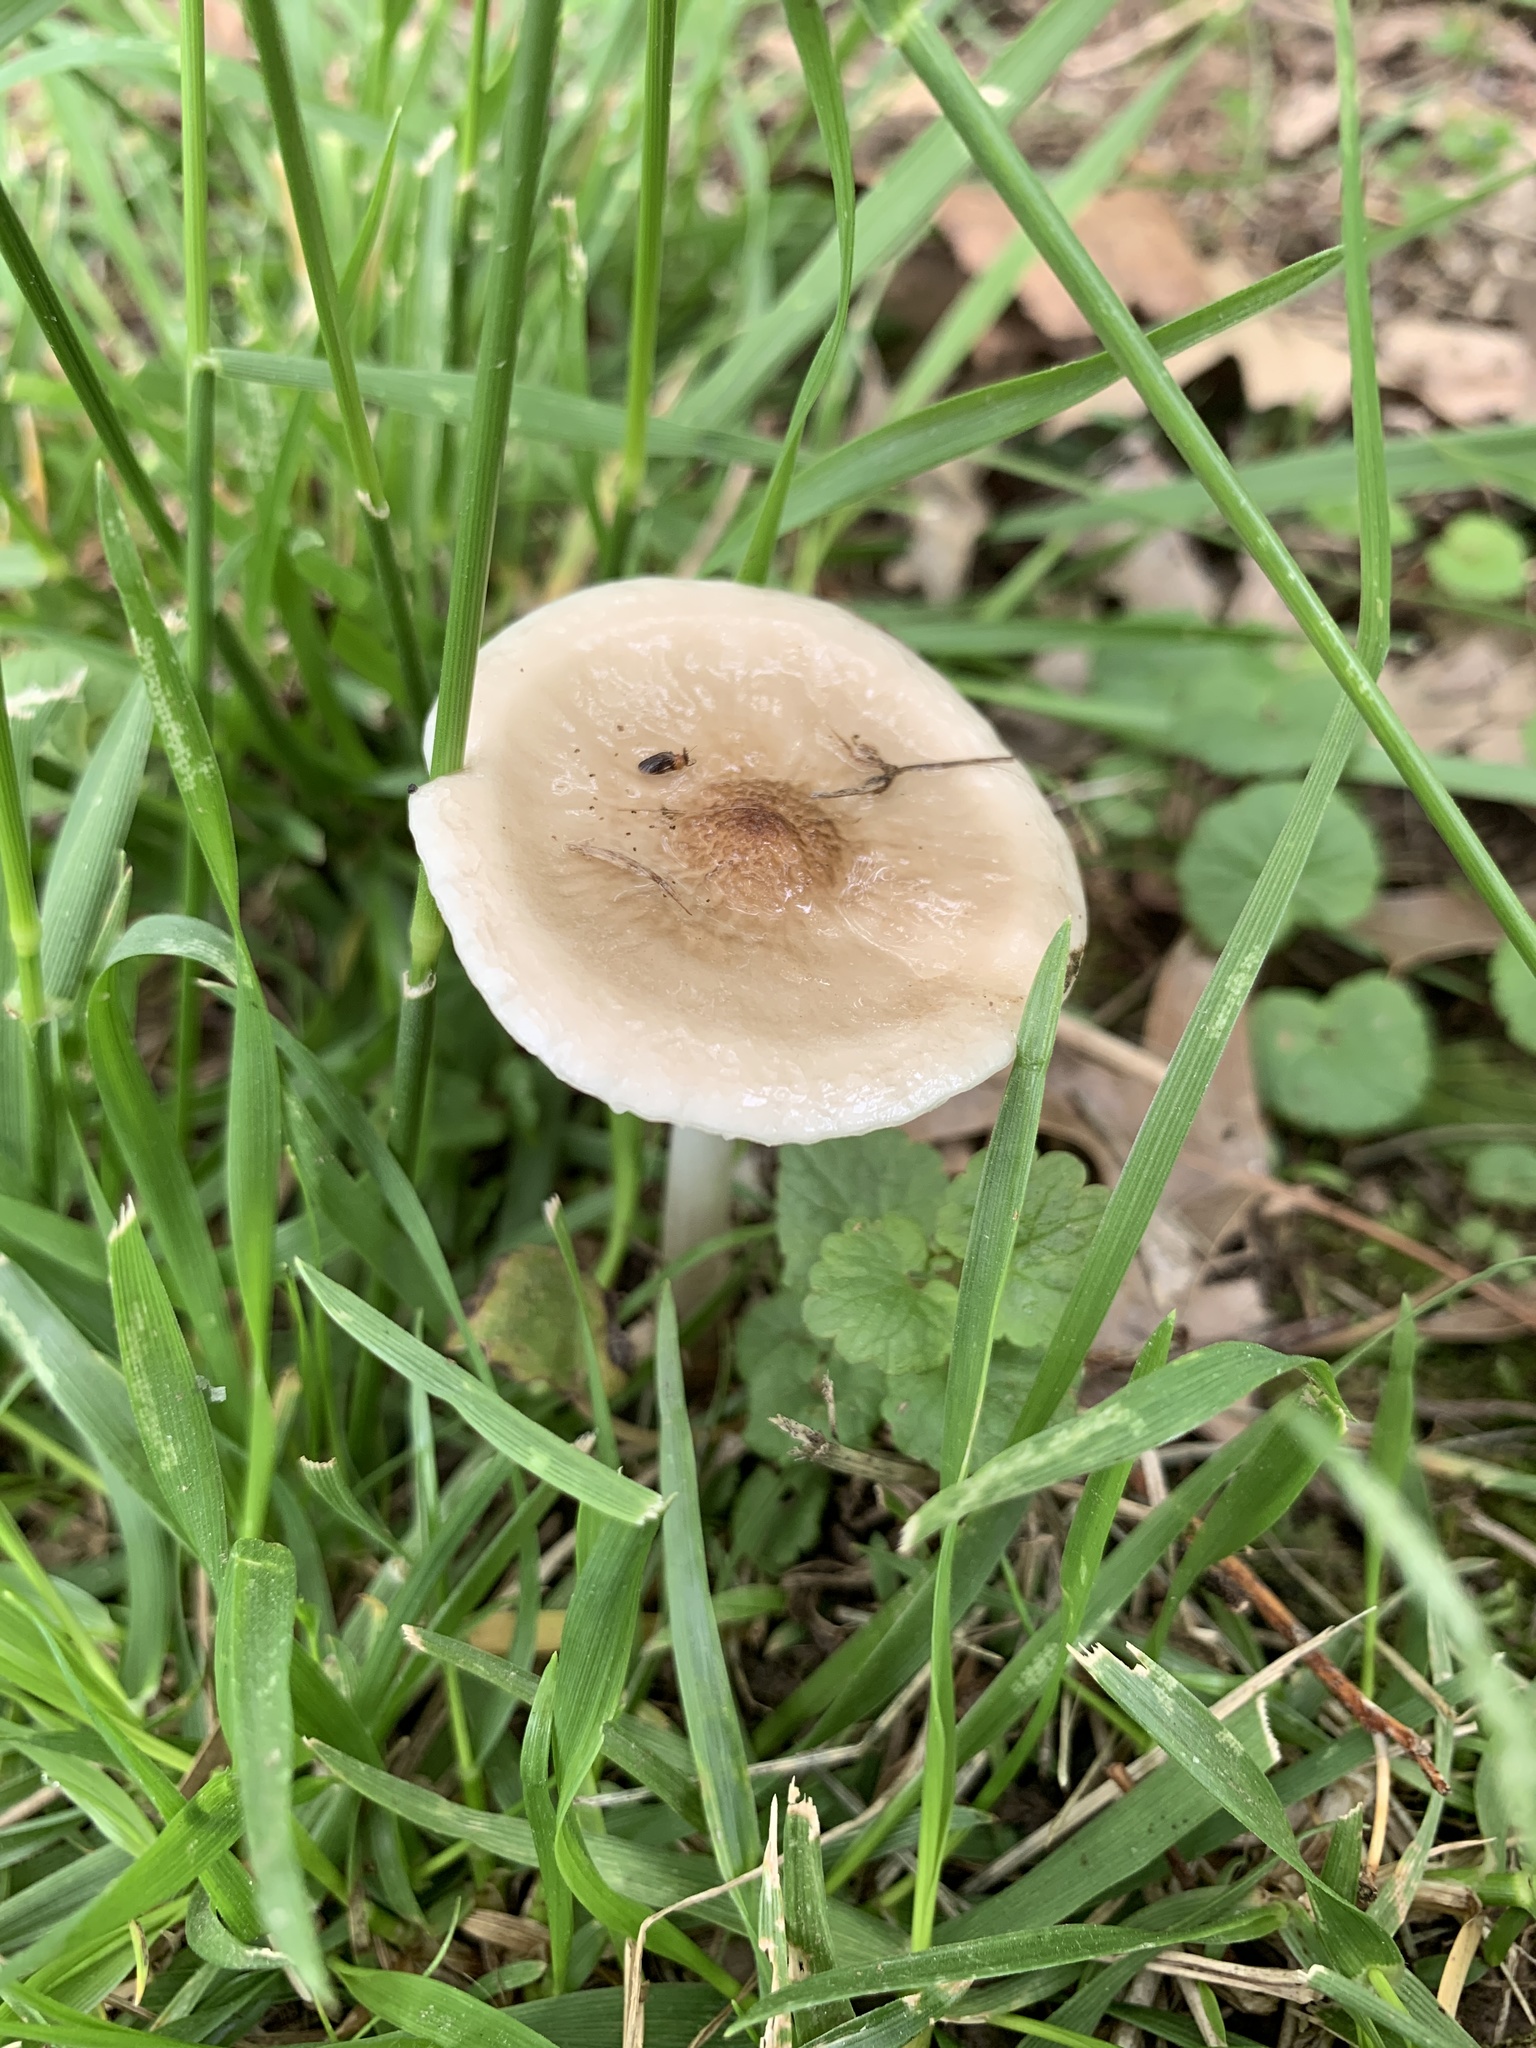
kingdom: Fungi
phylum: Basidiomycota
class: Agaricomycetes
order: Agaricales
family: Pluteaceae
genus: Pluteus
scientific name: Pluteus cervinus
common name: Deer shield
